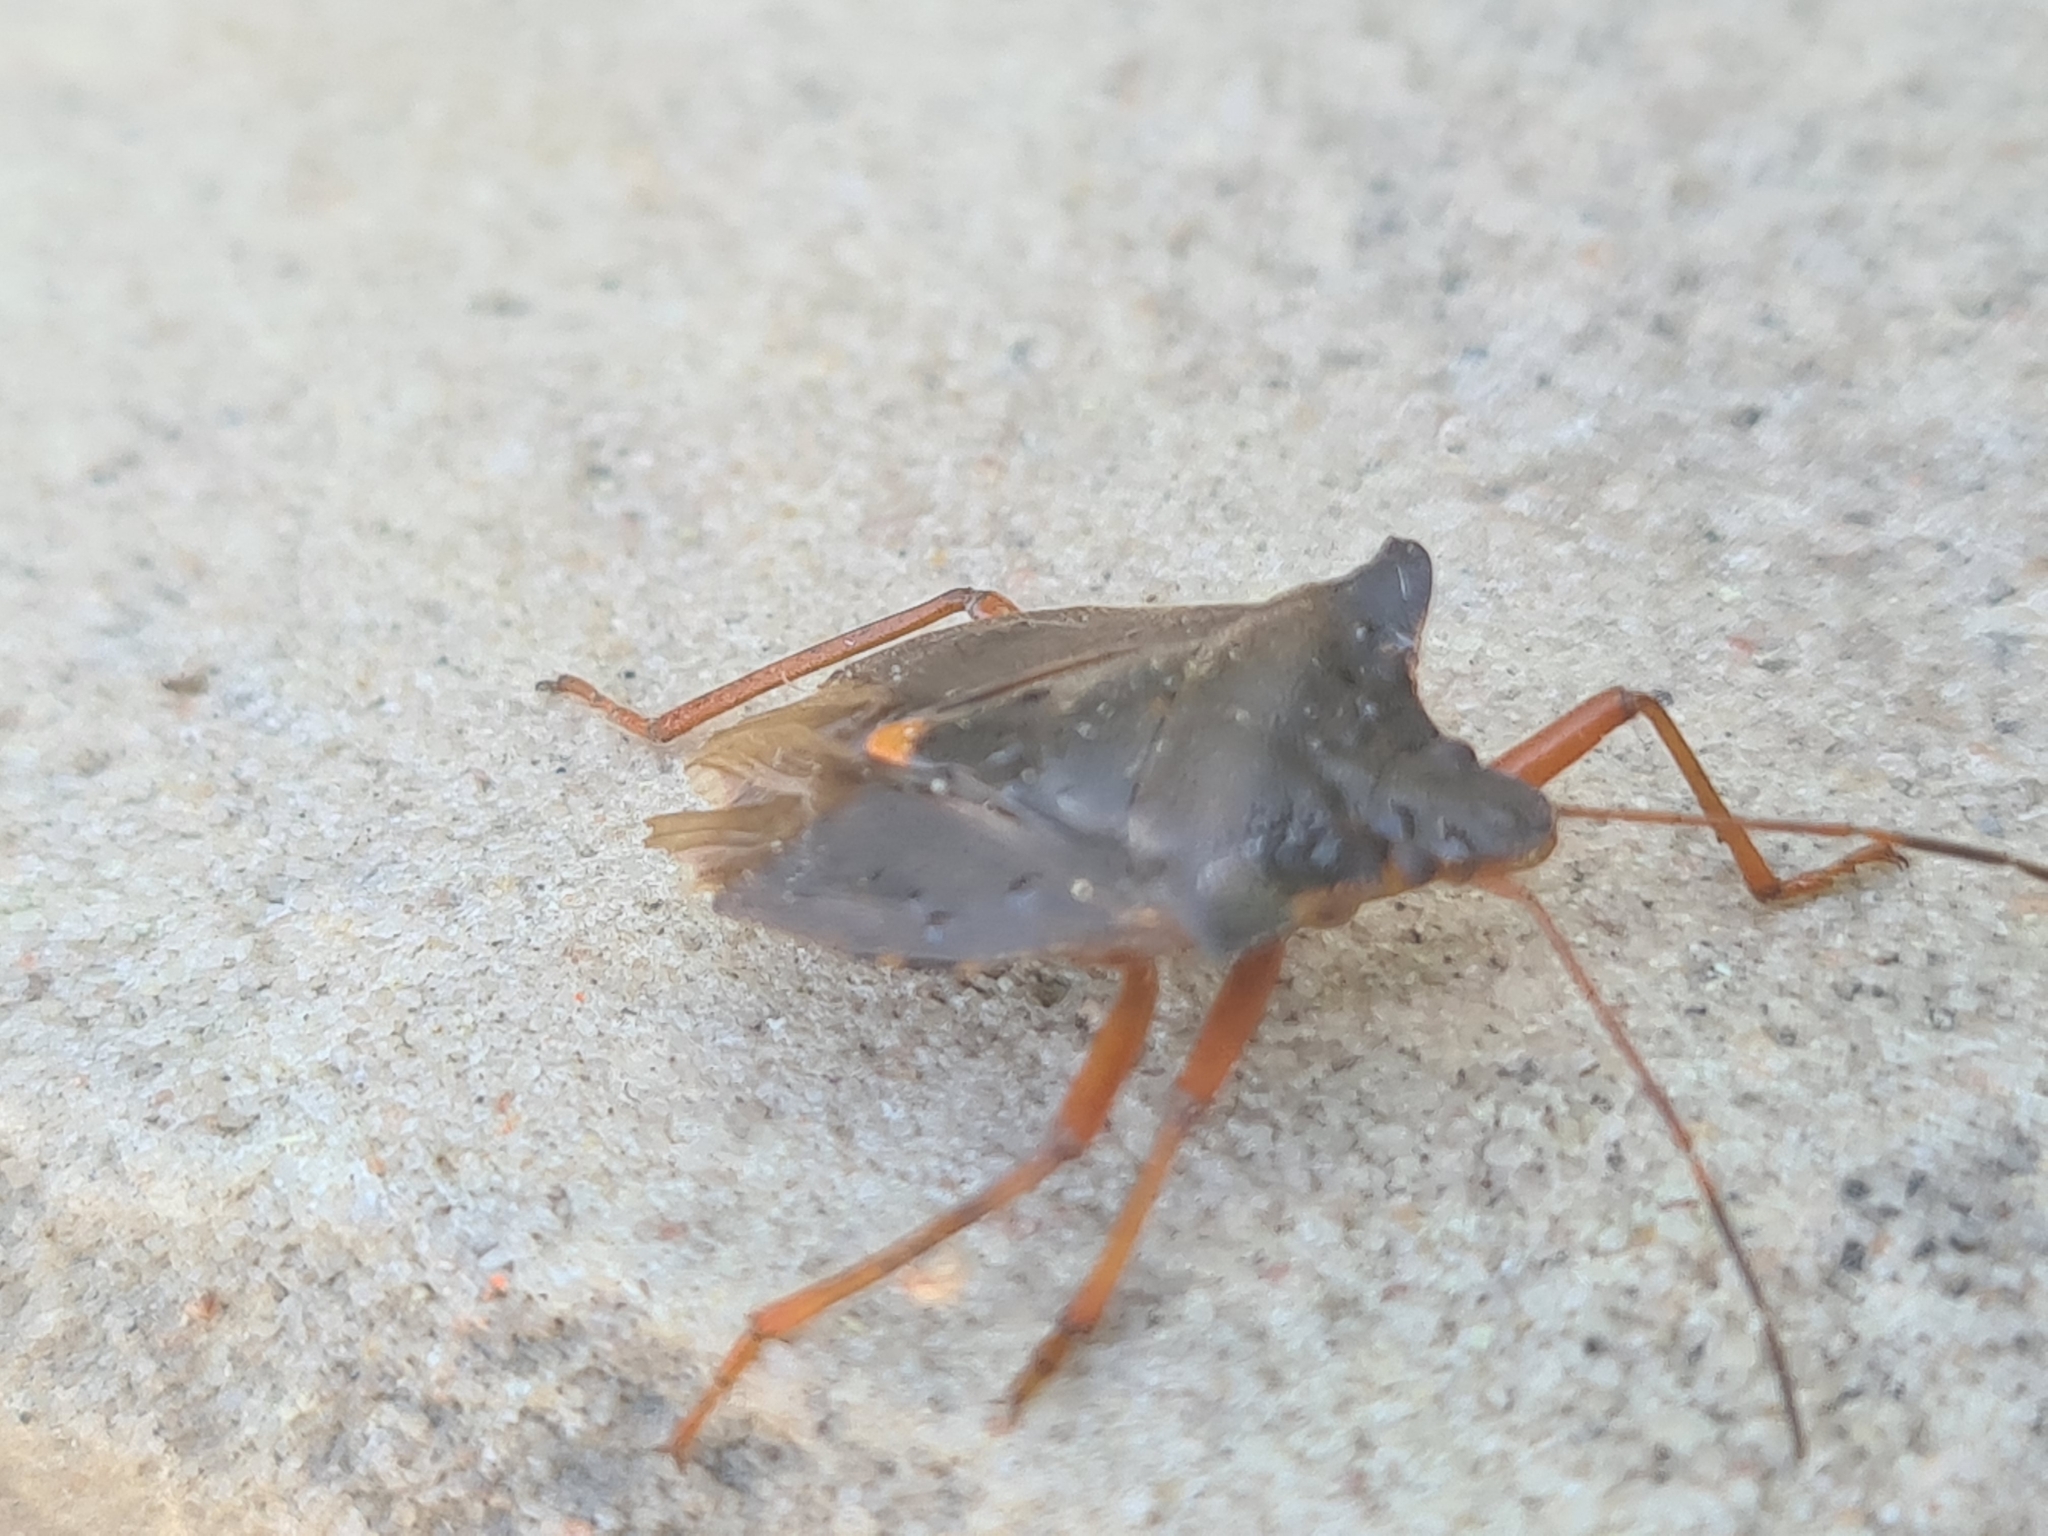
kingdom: Animalia
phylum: Arthropoda
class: Insecta
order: Hemiptera
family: Pentatomidae
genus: Pentatoma
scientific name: Pentatoma rufipes
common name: Forest bug
